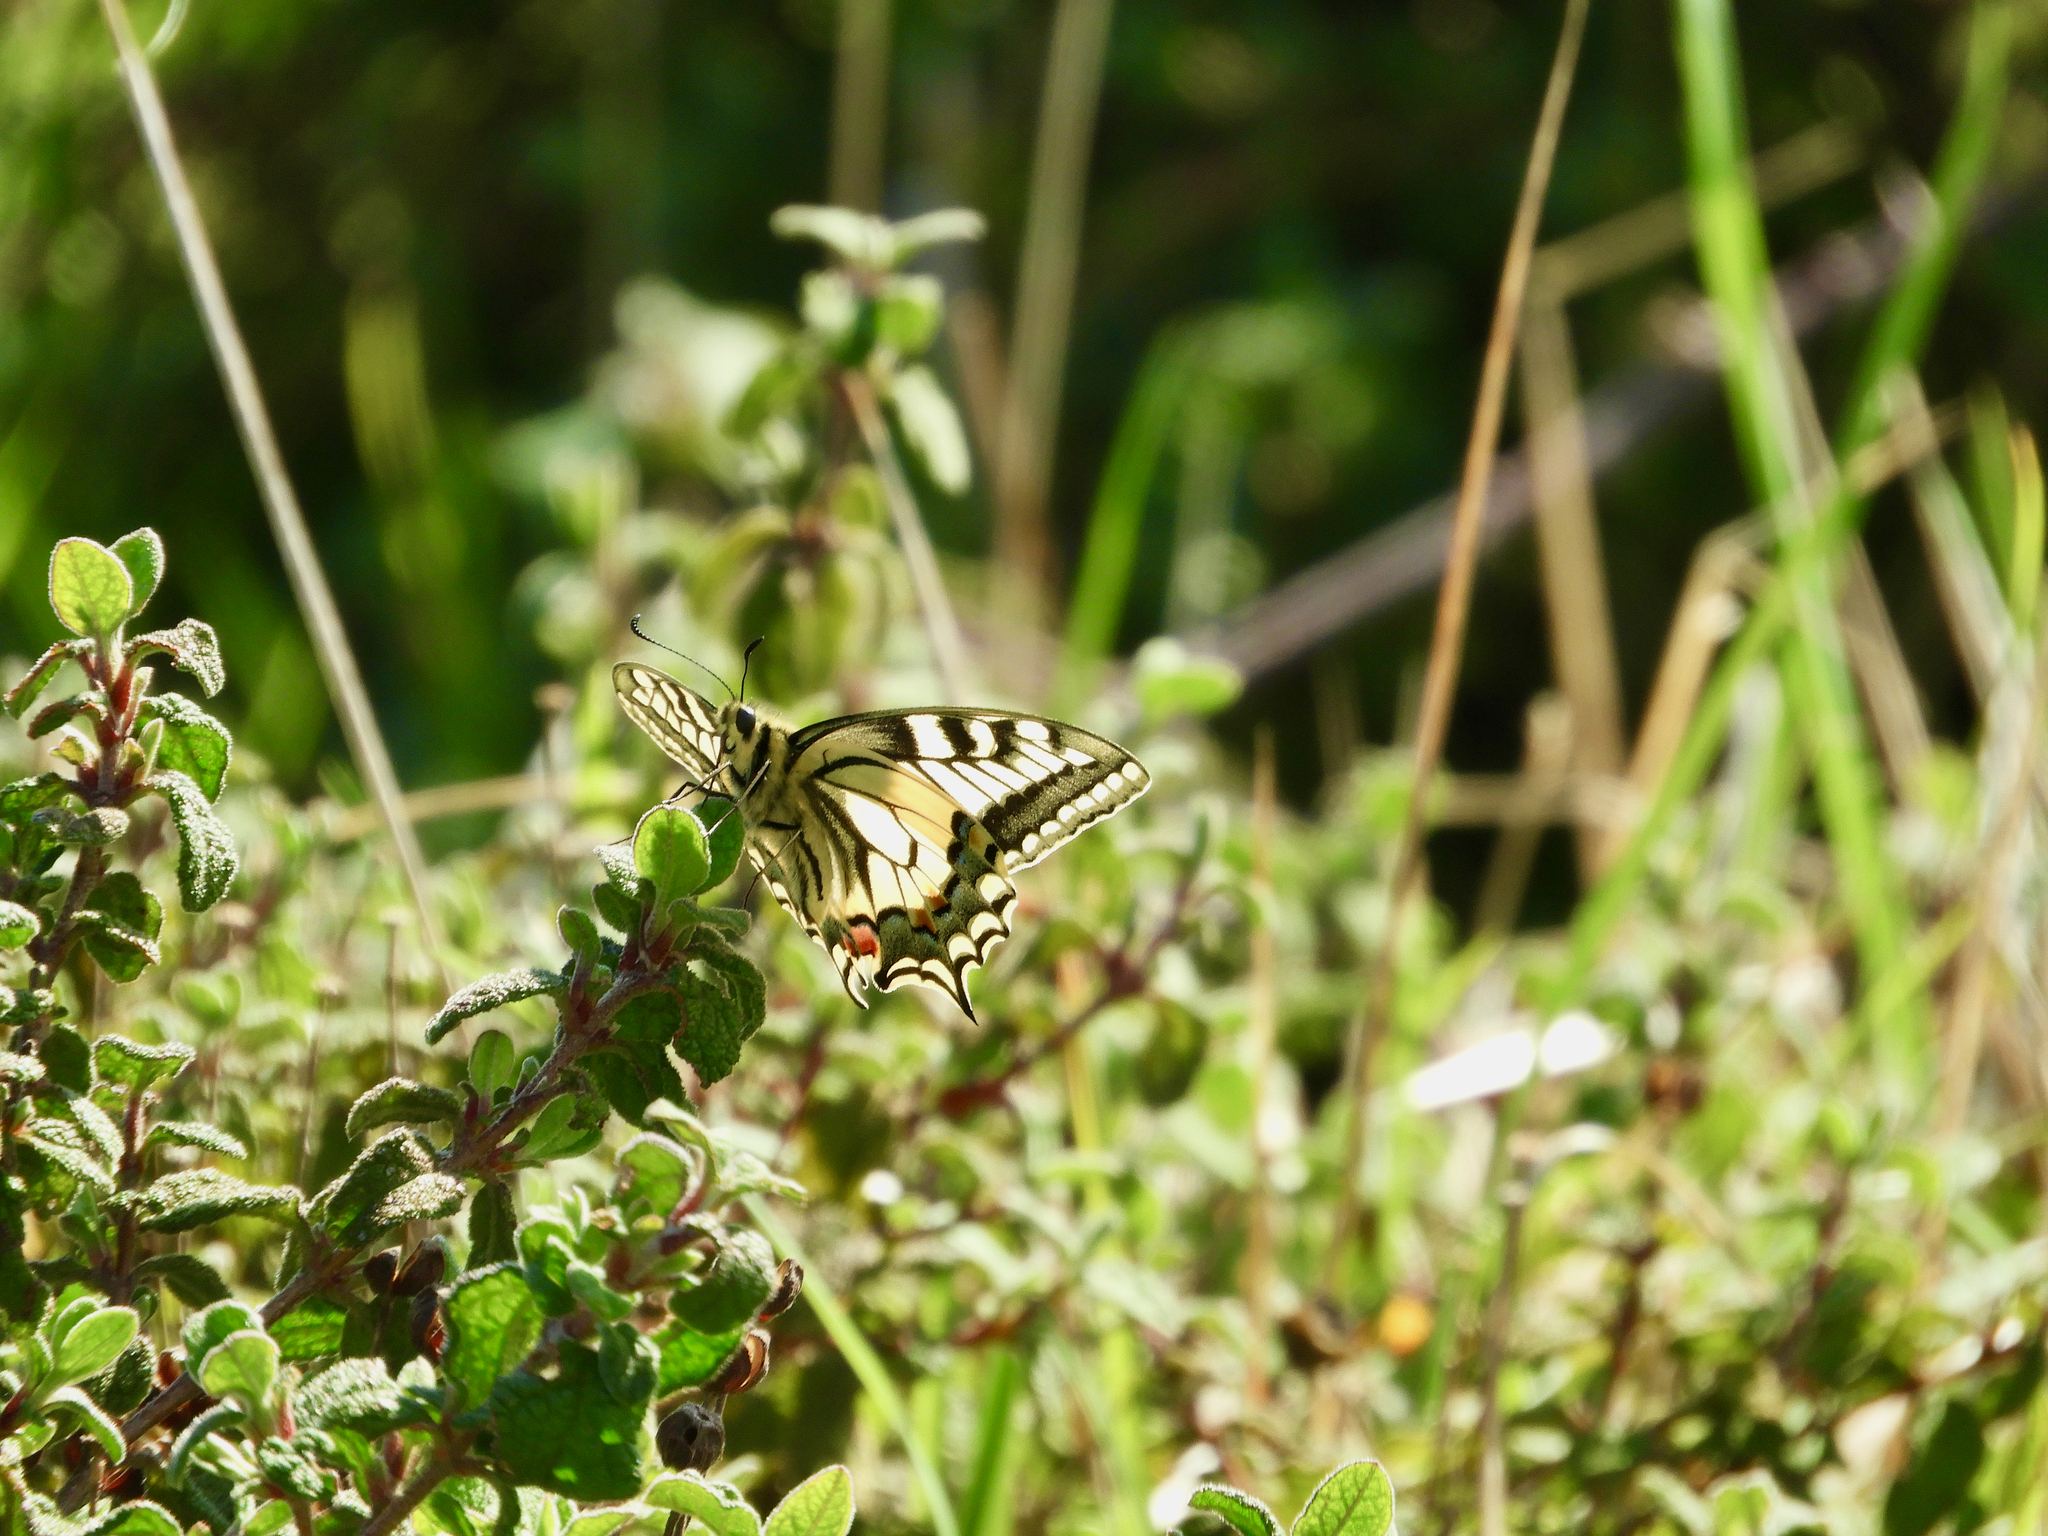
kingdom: Animalia
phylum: Arthropoda
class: Insecta
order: Lepidoptera
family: Papilionidae
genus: Papilio
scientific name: Papilio machaon
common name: Swallowtail
